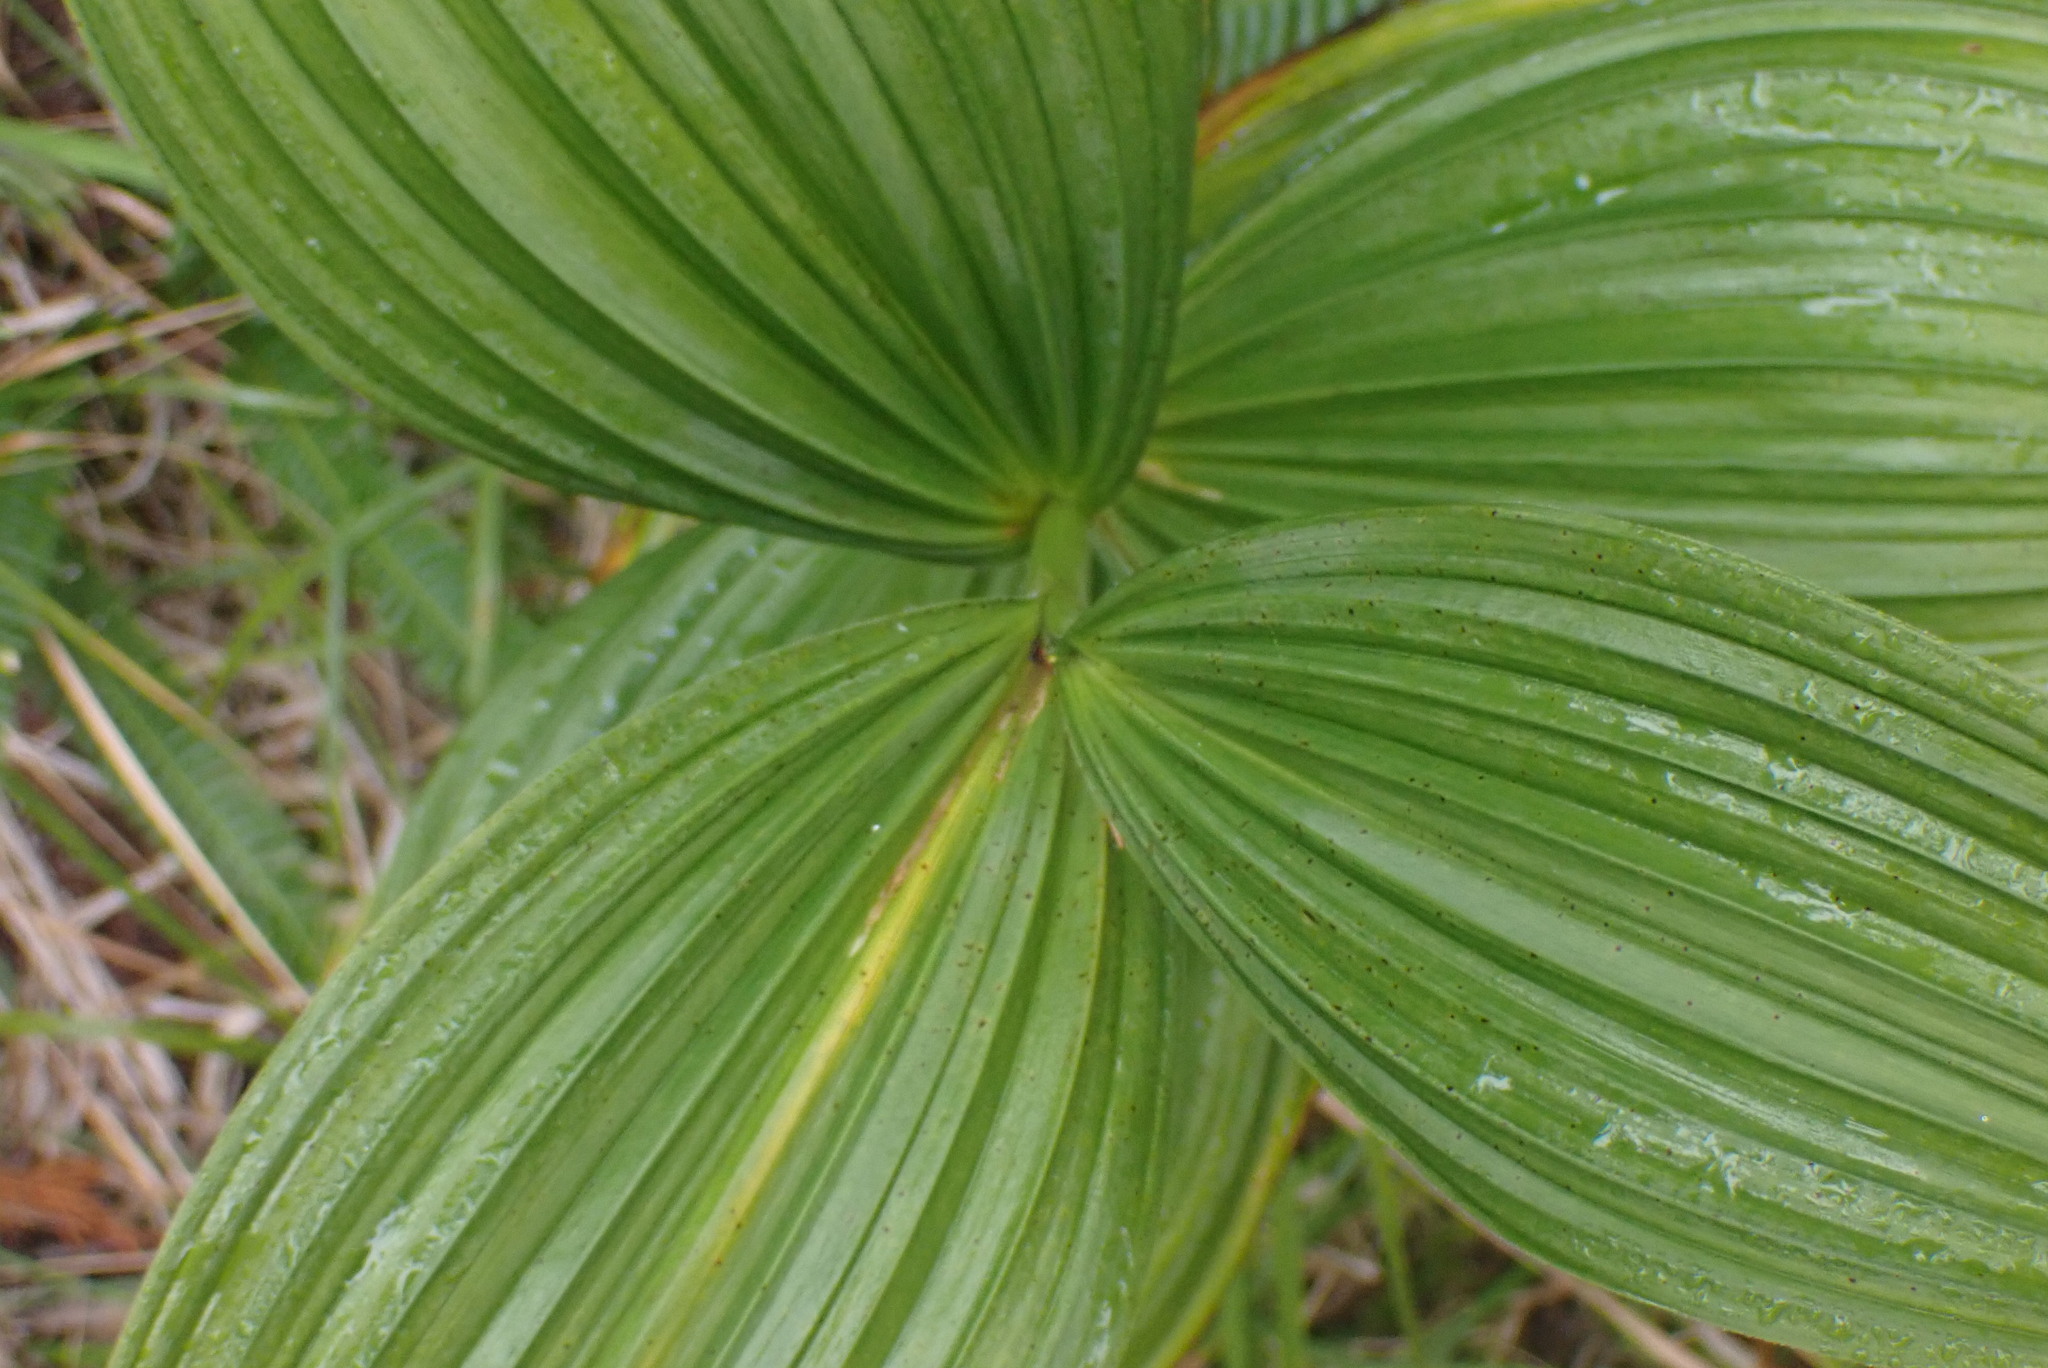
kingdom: Plantae
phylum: Tracheophyta
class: Liliopsida
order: Liliales
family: Melanthiaceae
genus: Veratrum
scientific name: Veratrum viride
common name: American false hellebore
